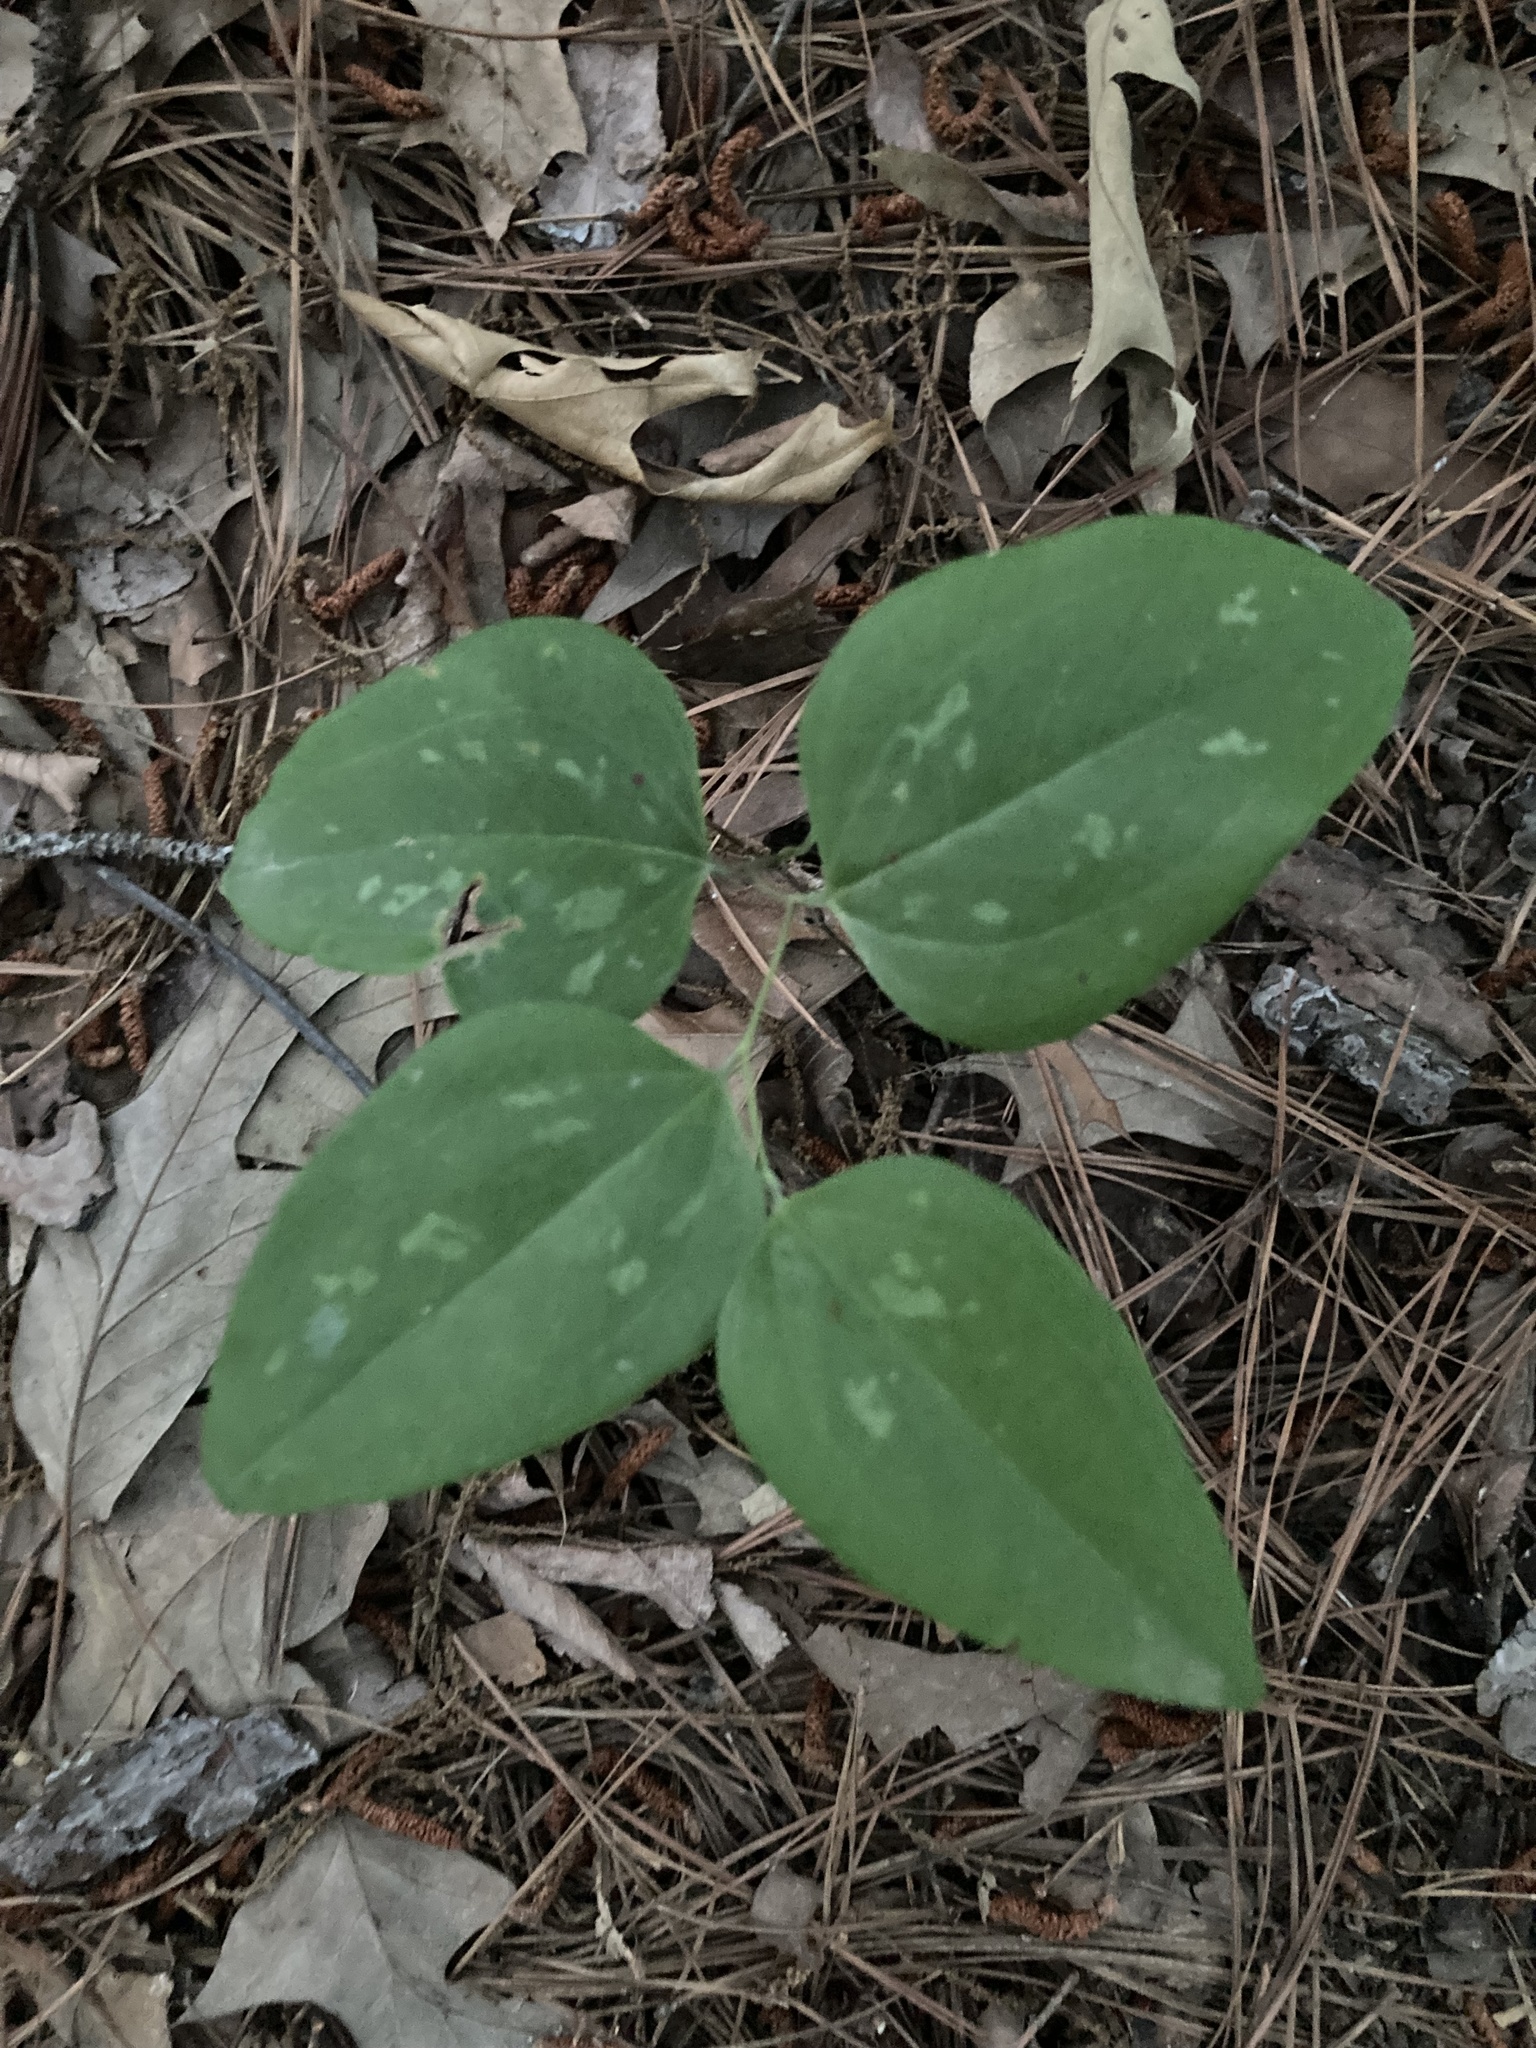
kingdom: Plantae
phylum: Tracheophyta
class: Liliopsida
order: Liliales
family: Smilacaceae
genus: Smilax
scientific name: Smilax glauca
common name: Cat greenbrier
